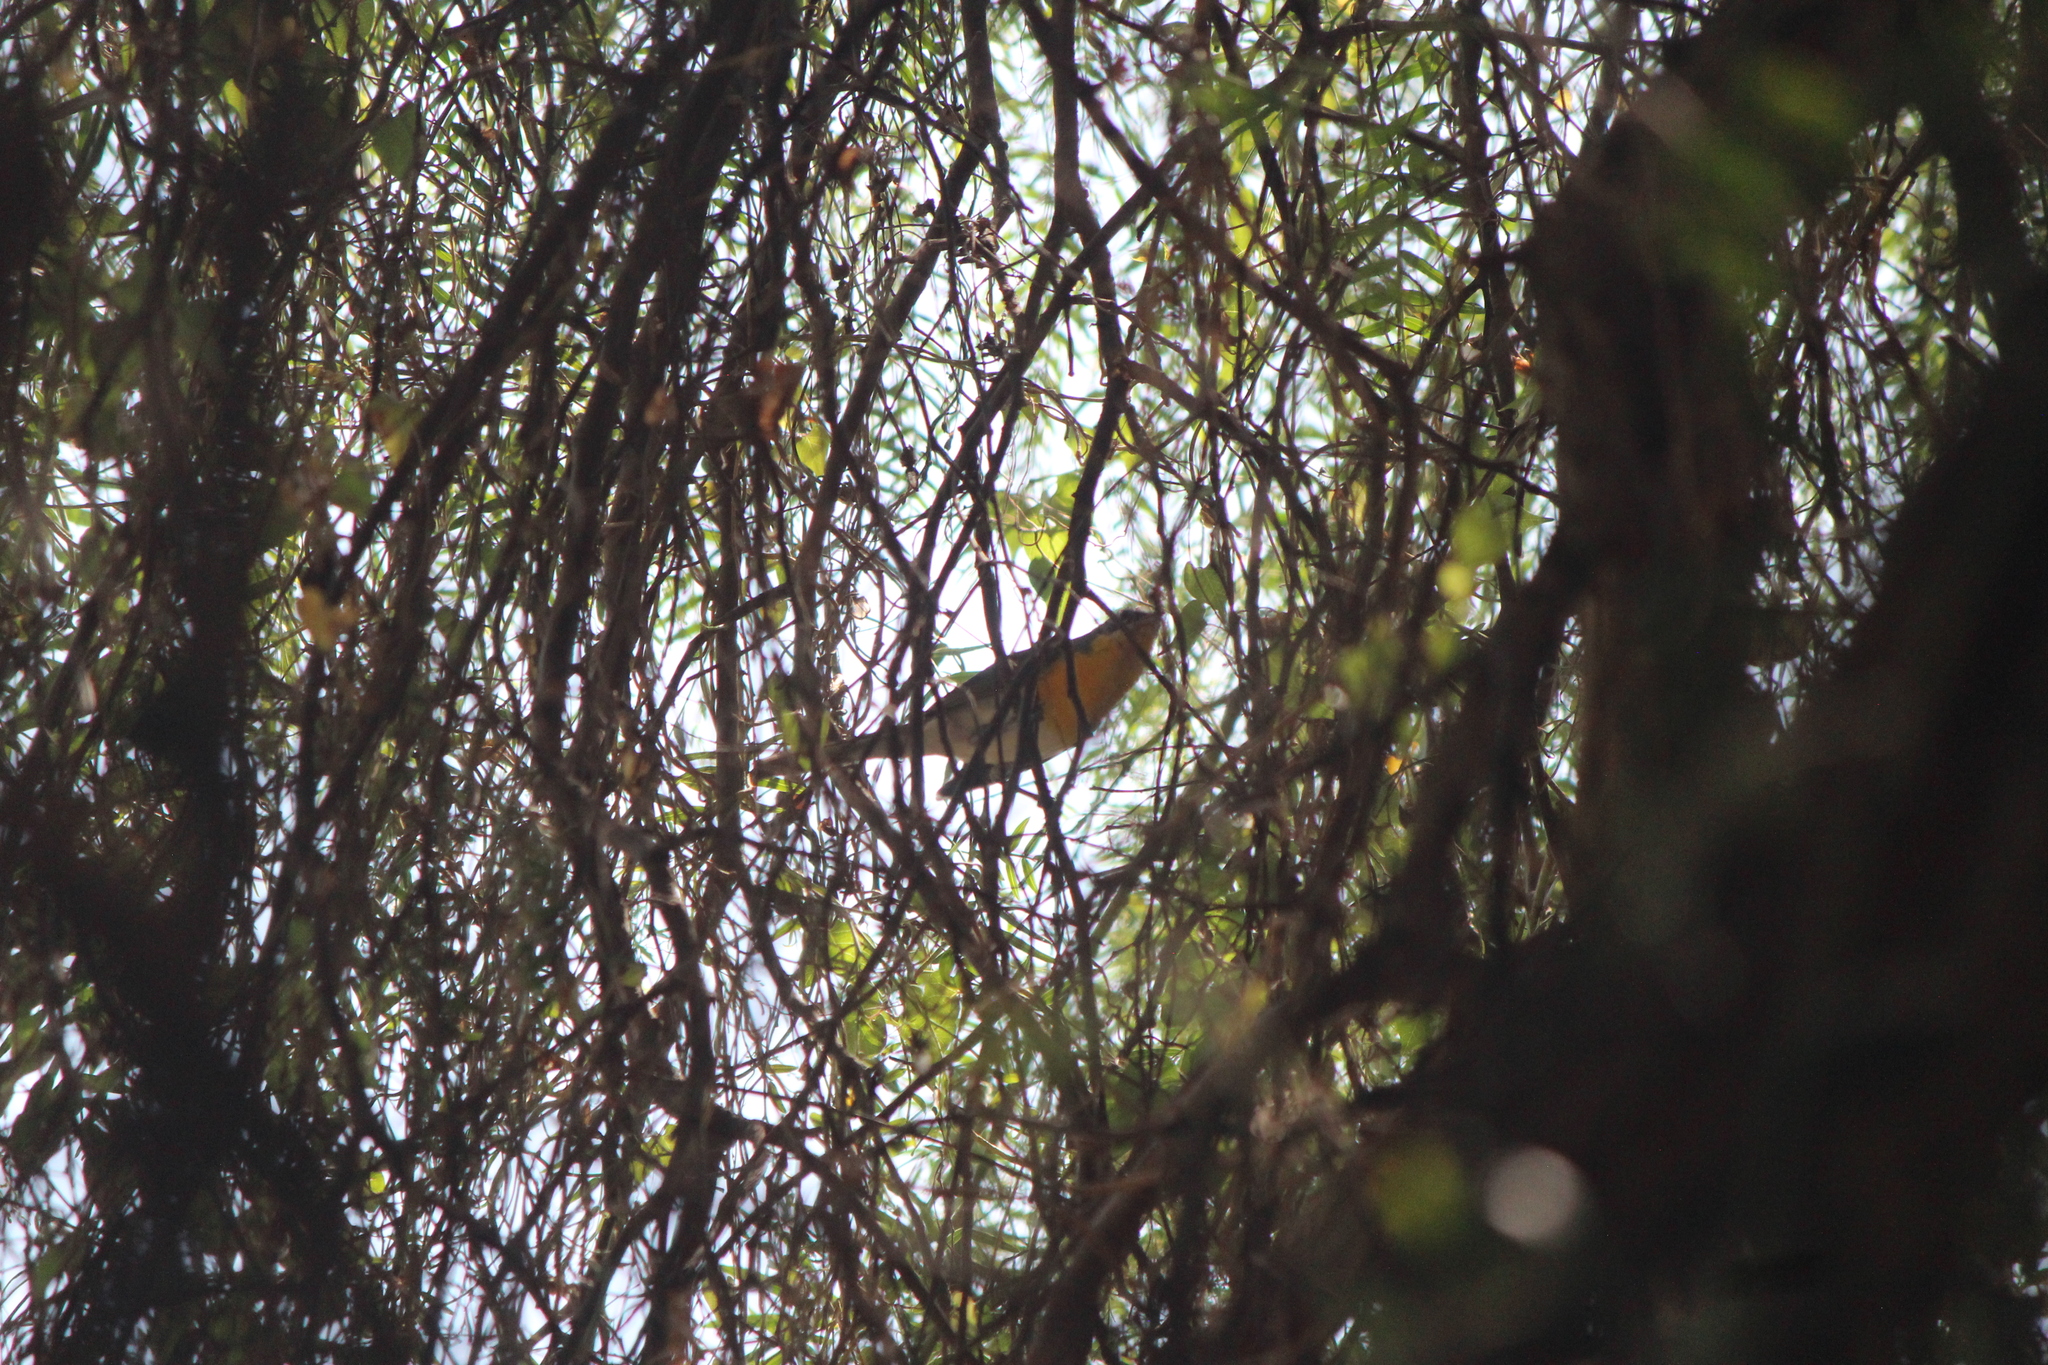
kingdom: Animalia
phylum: Chordata
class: Aves
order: Passeriformes
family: Parulidae
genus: Icteria
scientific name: Icteria virens
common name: Yellow-breasted chat
